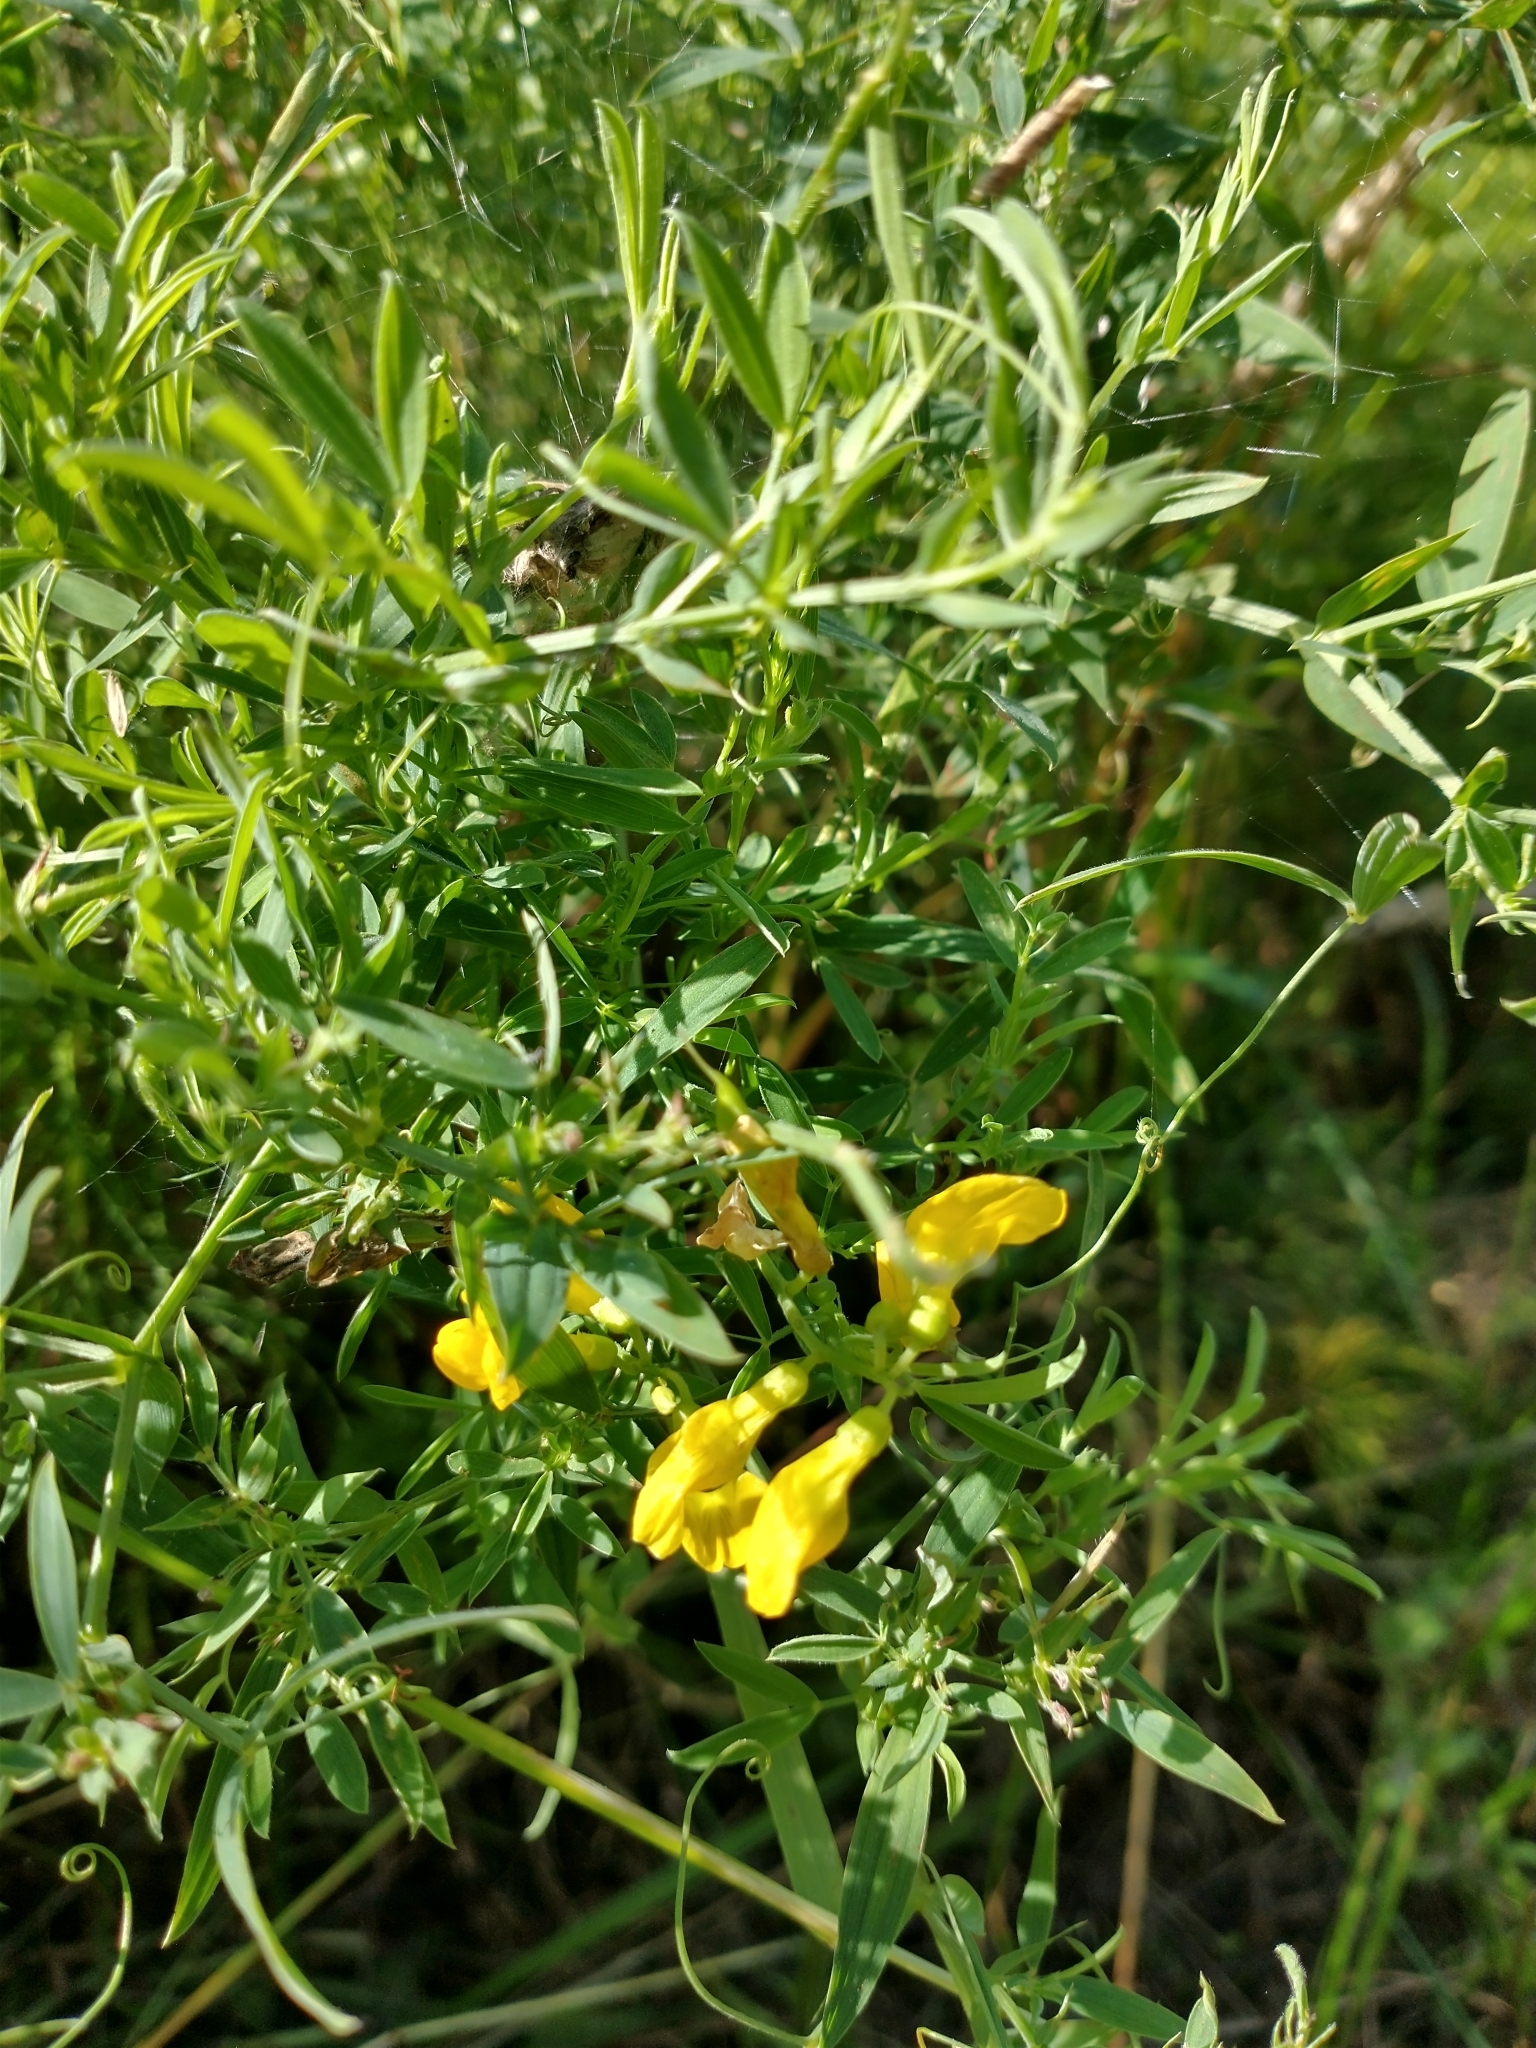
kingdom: Plantae
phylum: Tracheophyta
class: Magnoliopsida
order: Fabales
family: Fabaceae
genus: Lathyrus
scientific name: Lathyrus pratensis
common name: Meadow vetchling
